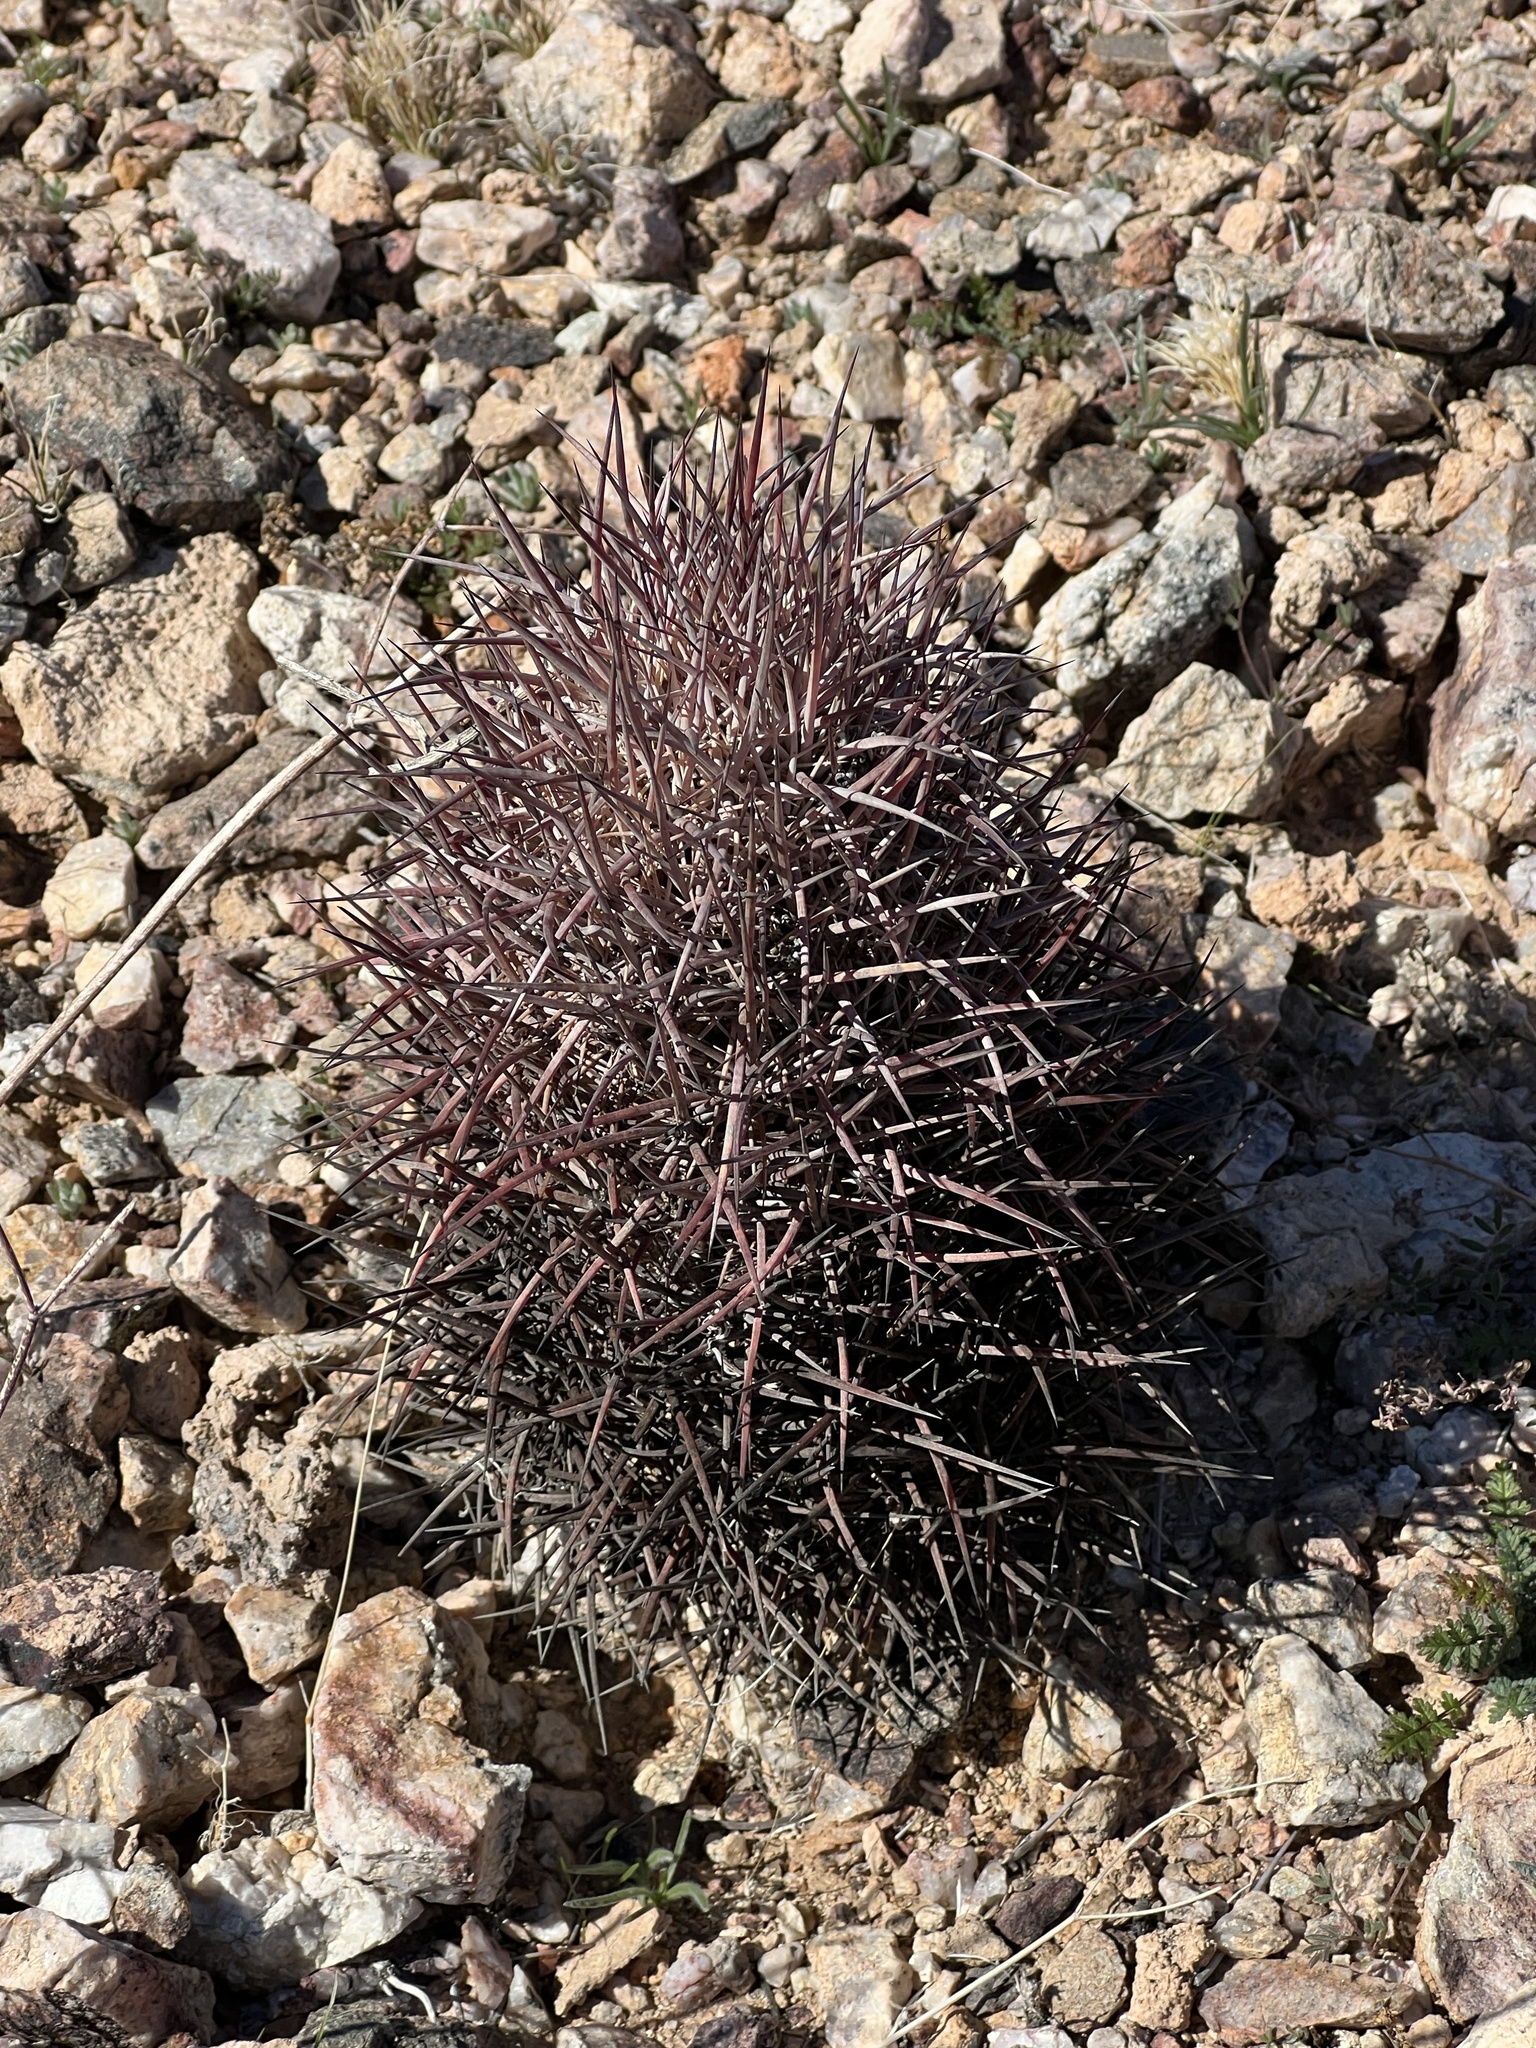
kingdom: Plantae
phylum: Tracheophyta
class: Magnoliopsida
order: Caryophyllales
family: Cactaceae
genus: Sclerocactus
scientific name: Sclerocactus johnsonii
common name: Eight-spine fishhook cactus
